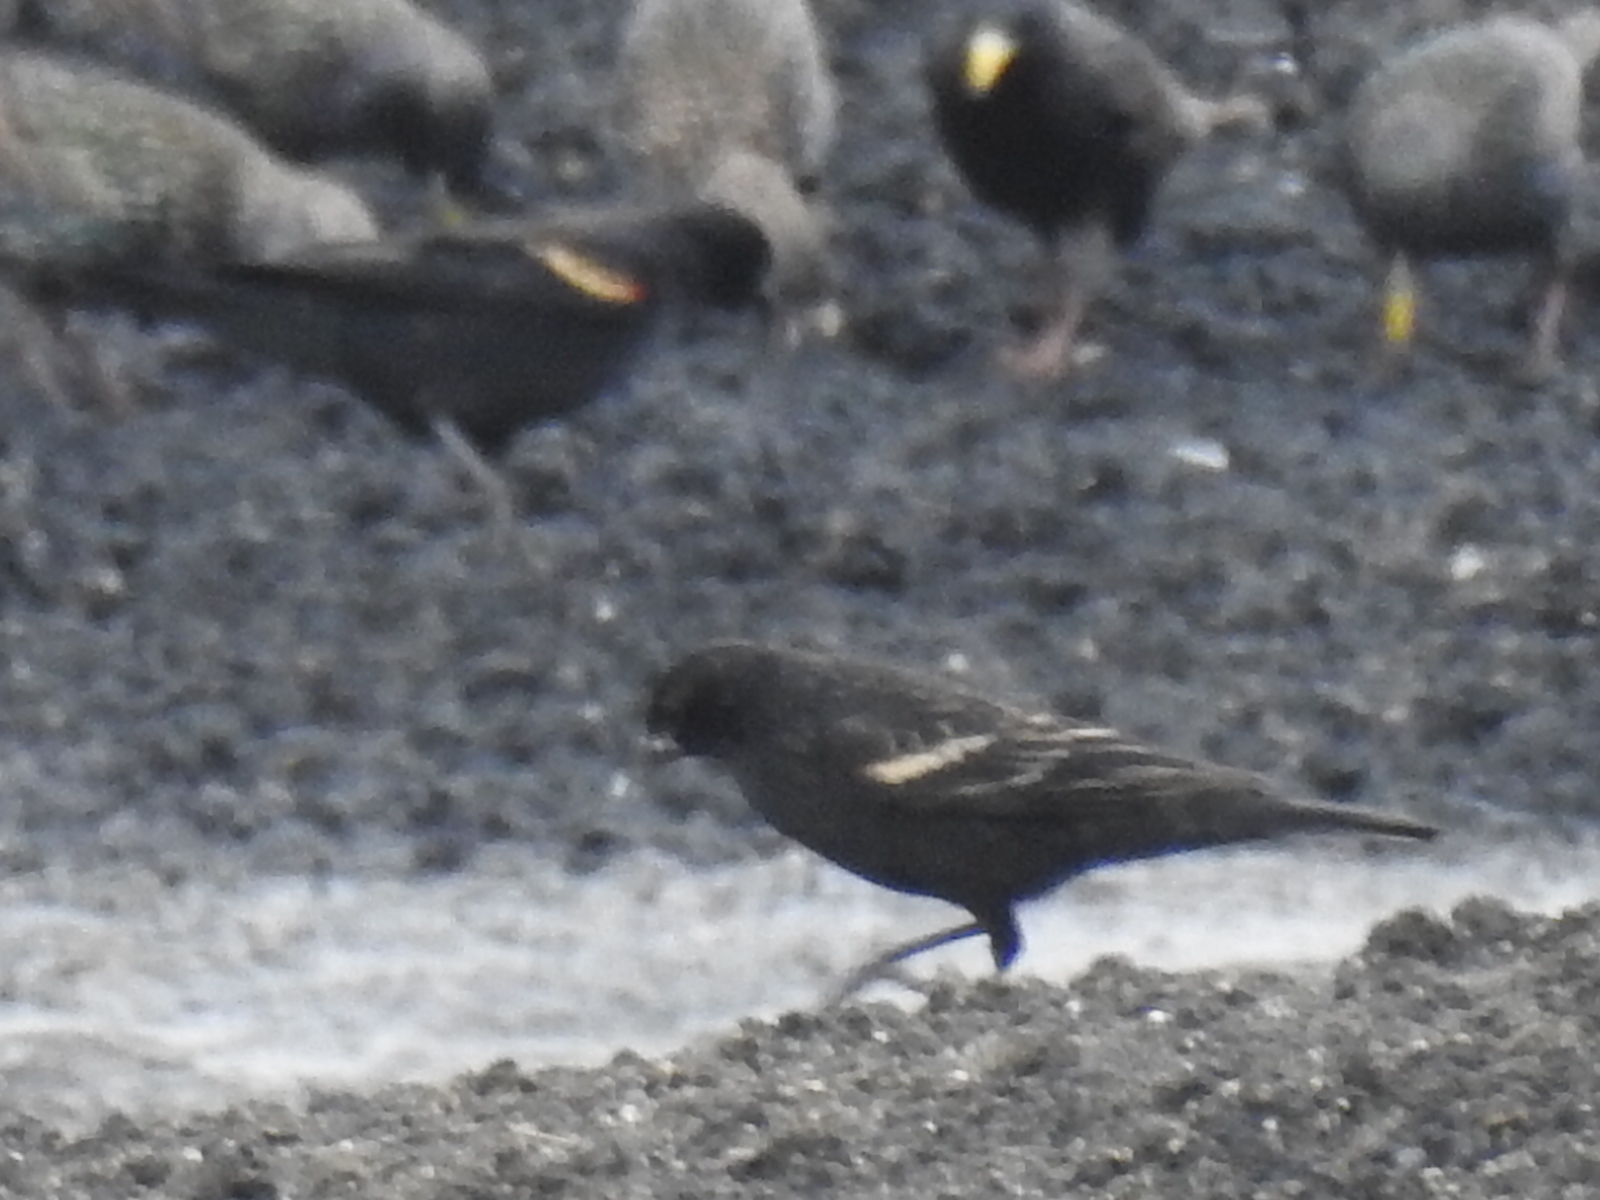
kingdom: Animalia
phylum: Chordata
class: Aves
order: Passeriformes
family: Icteridae
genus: Agelaius
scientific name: Agelaius phoeniceus
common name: Red-winged blackbird
